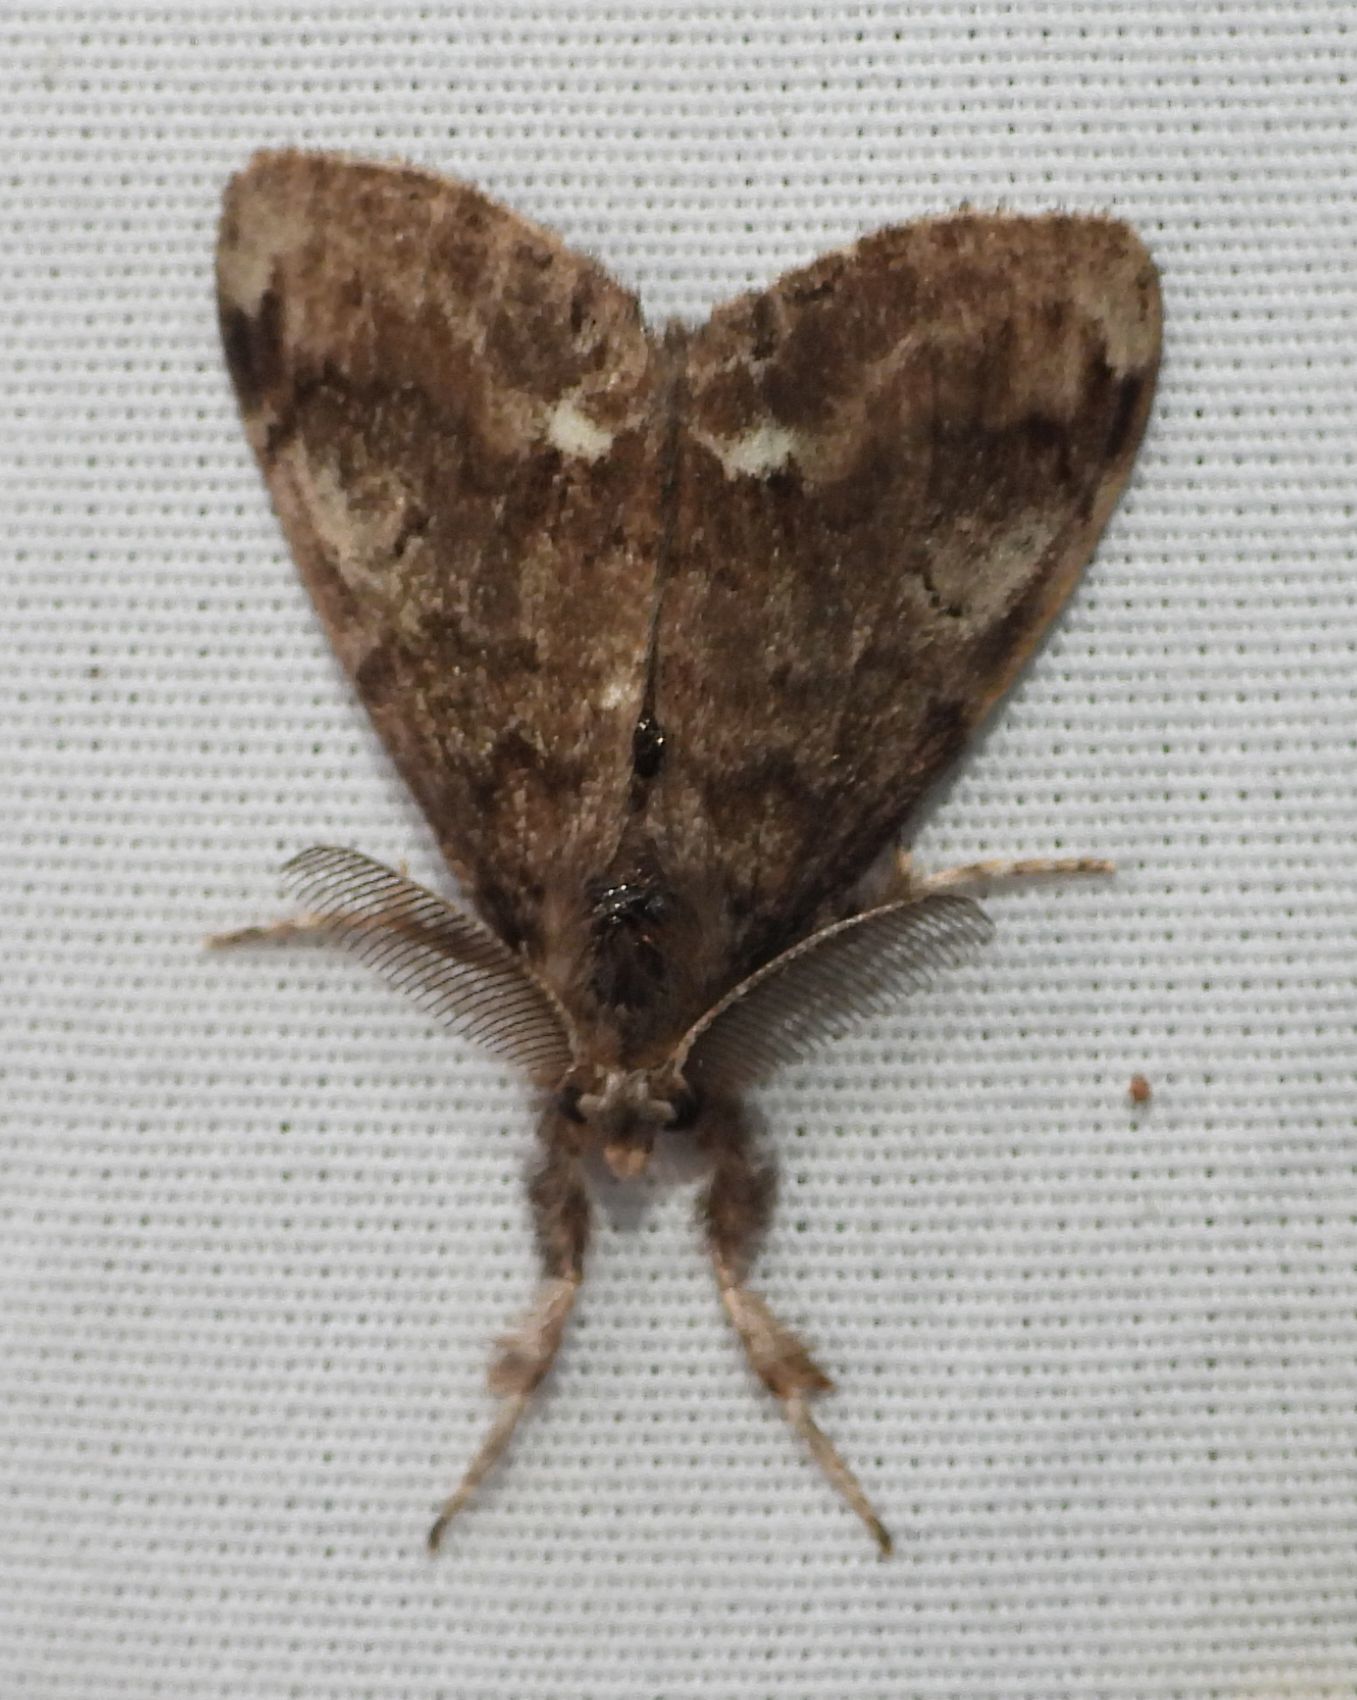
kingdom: Animalia
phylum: Arthropoda
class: Insecta
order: Lepidoptera
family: Erebidae
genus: Orgyia
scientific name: Orgyia leucostigma
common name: White-marked tussock moth
